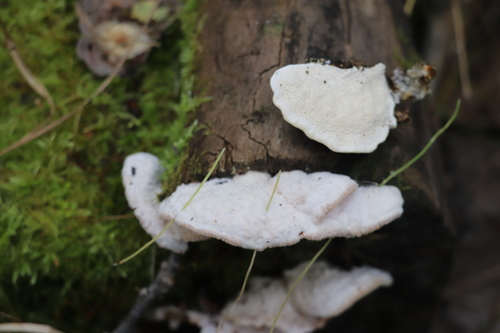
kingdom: Fungi
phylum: Basidiomycota
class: Agaricomycetes
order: Polyporales
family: Polyporaceae
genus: Trametes
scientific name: Trametes pubescens
